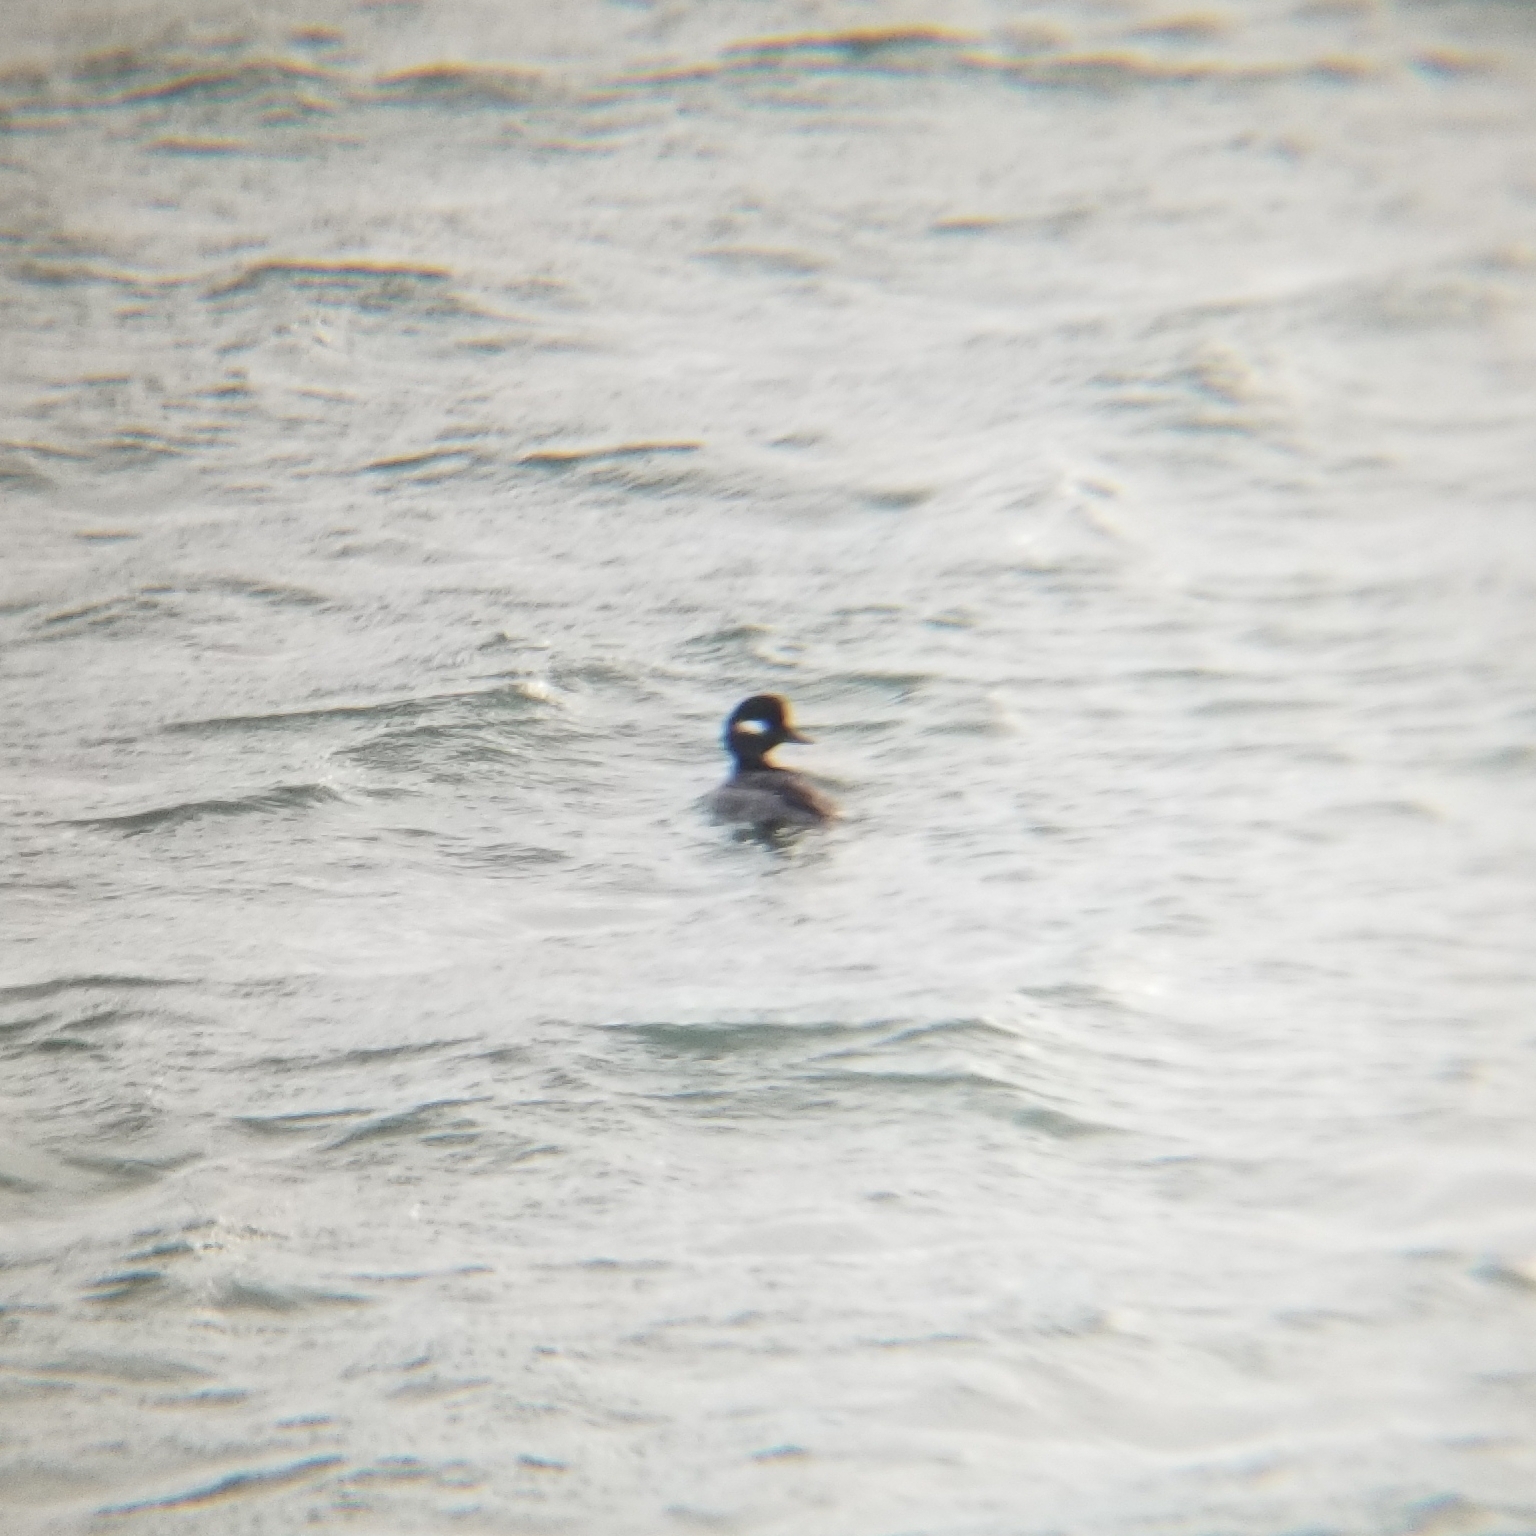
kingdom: Animalia
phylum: Chordata
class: Aves
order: Anseriformes
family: Anatidae
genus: Bucephala
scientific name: Bucephala albeola
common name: Bufflehead
